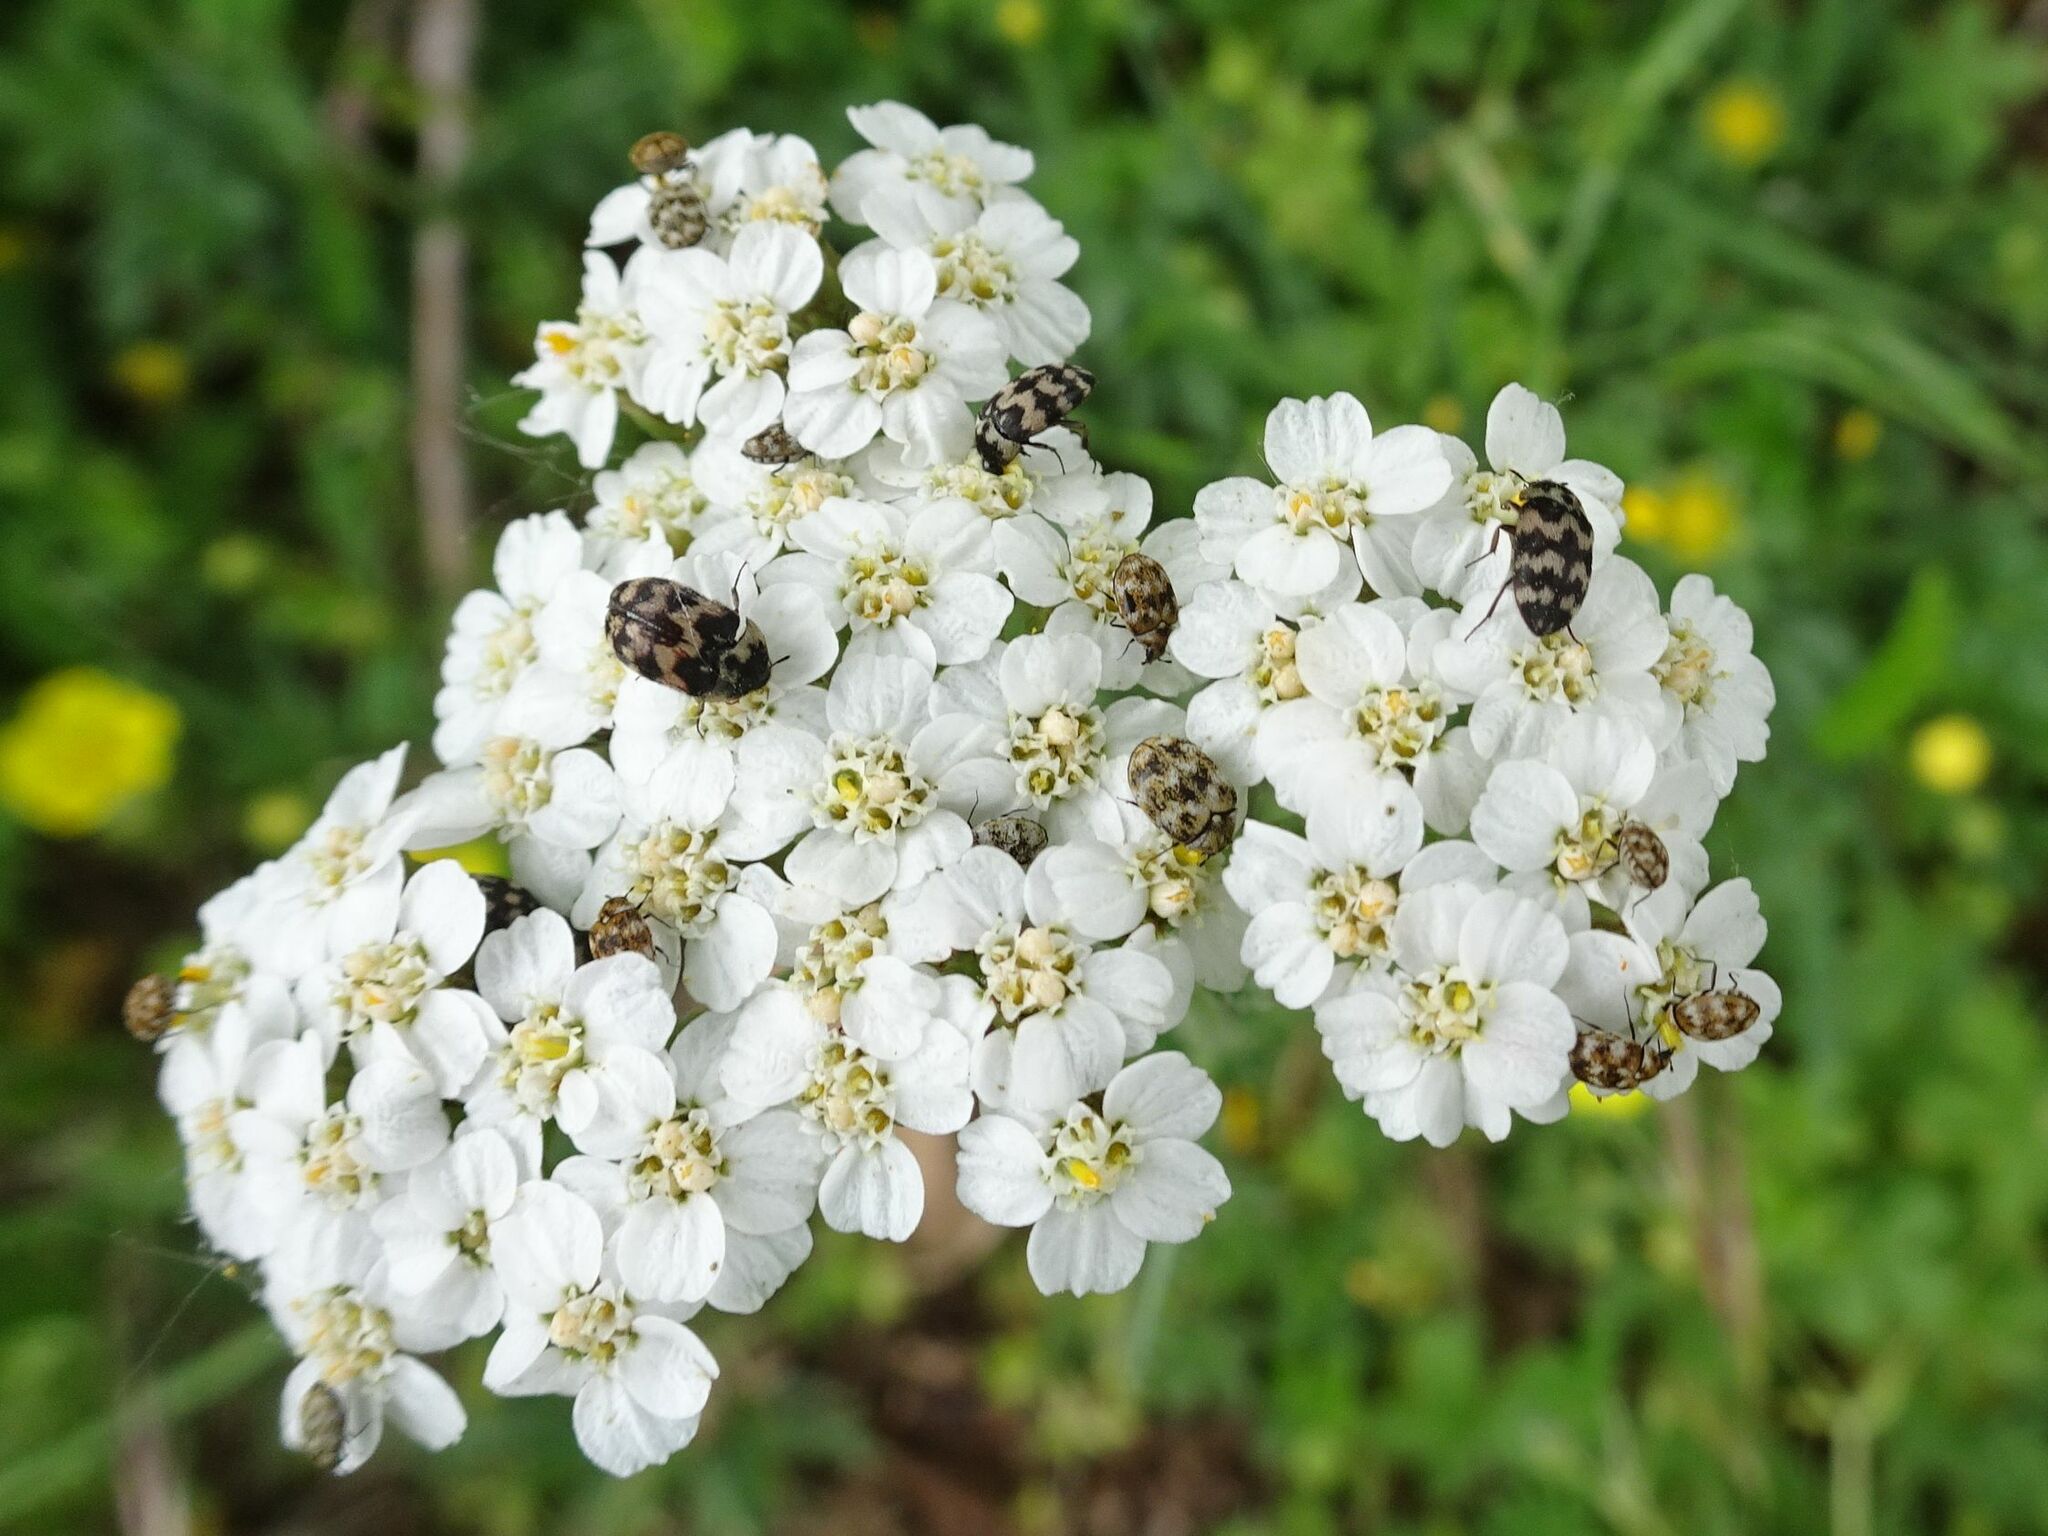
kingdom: Animalia
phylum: Arthropoda
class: Insecta
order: Coleoptera
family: Dermestidae
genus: Attagenus
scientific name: Attagenus trifasciatus
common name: Carpet beetle
